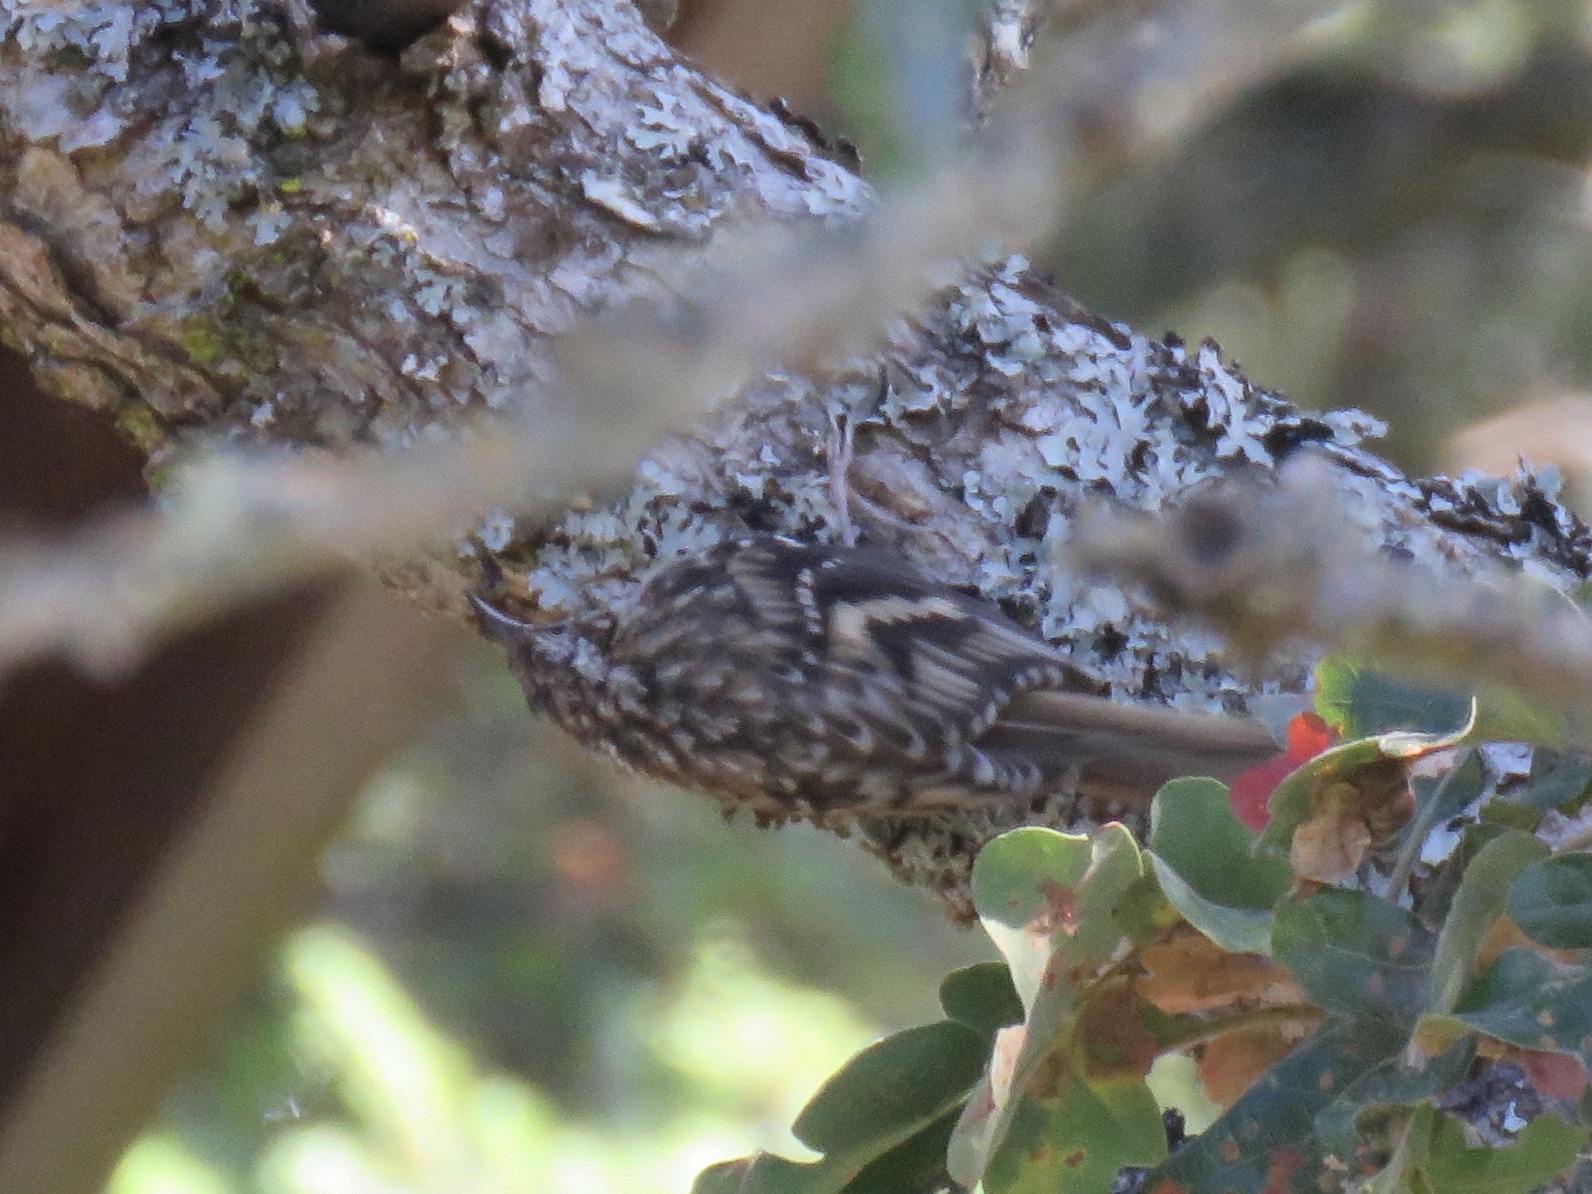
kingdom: Animalia
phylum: Chordata
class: Aves
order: Passeriformes
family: Certhiidae
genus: Certhia
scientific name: Certhia americana
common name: Brown creeper
